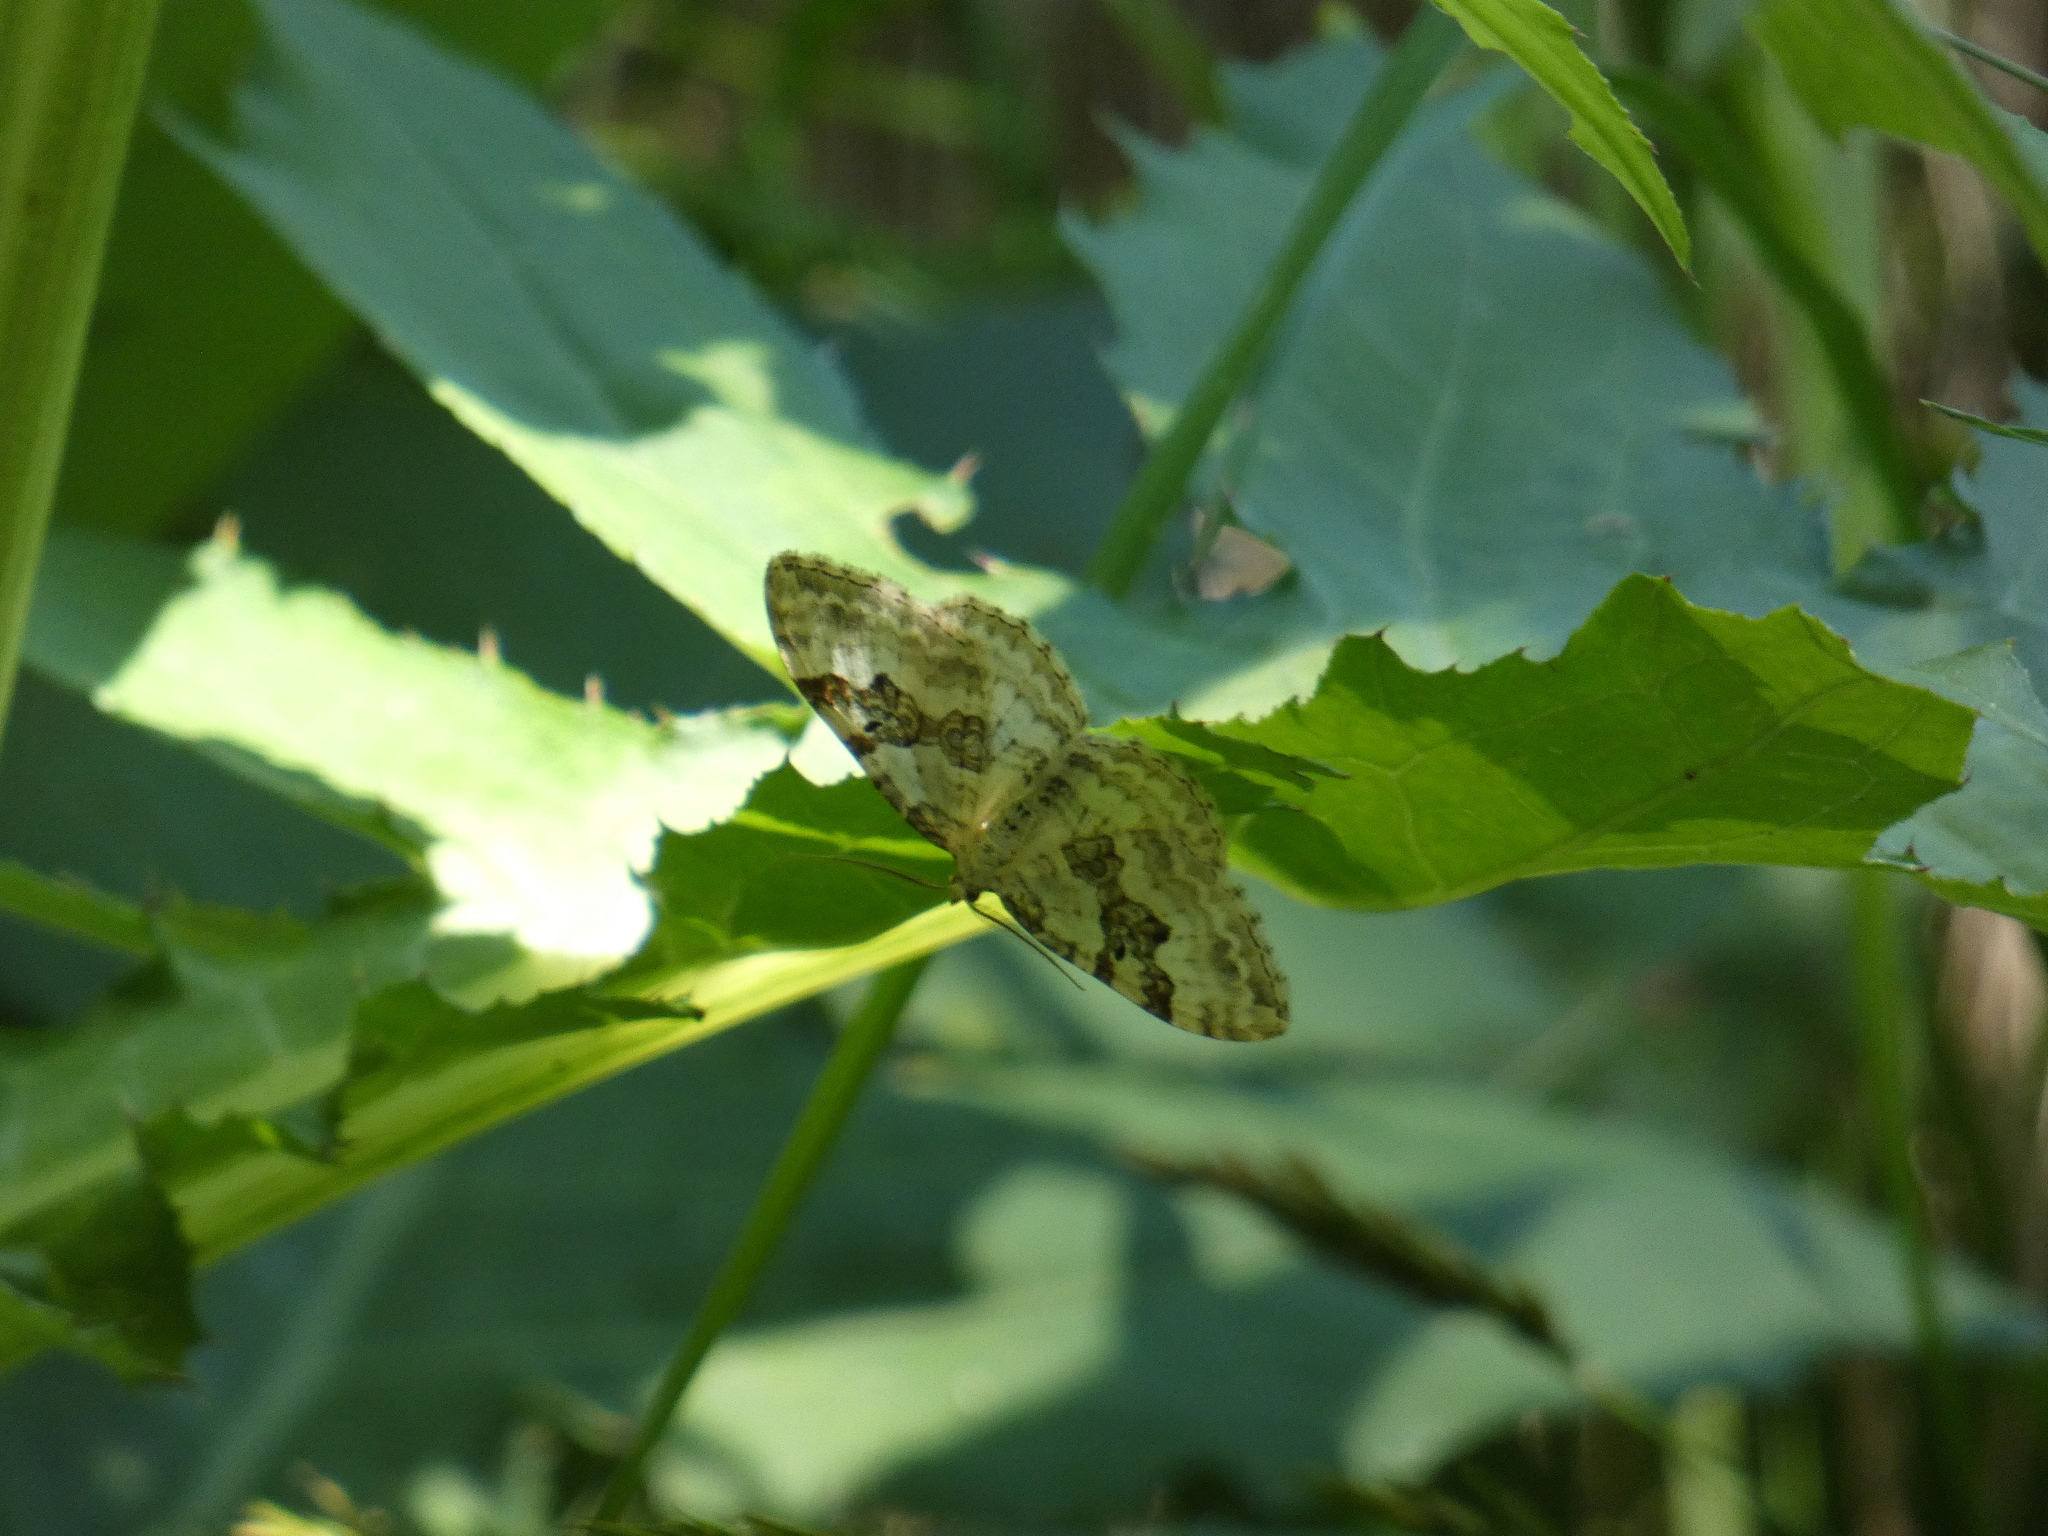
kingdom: Animalia
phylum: Arthropoda
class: Insecta
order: Lepidoptera
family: Geometridae
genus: Xanthorhoe
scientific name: Xanthorhoe montanata
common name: Silver-ground carpet
